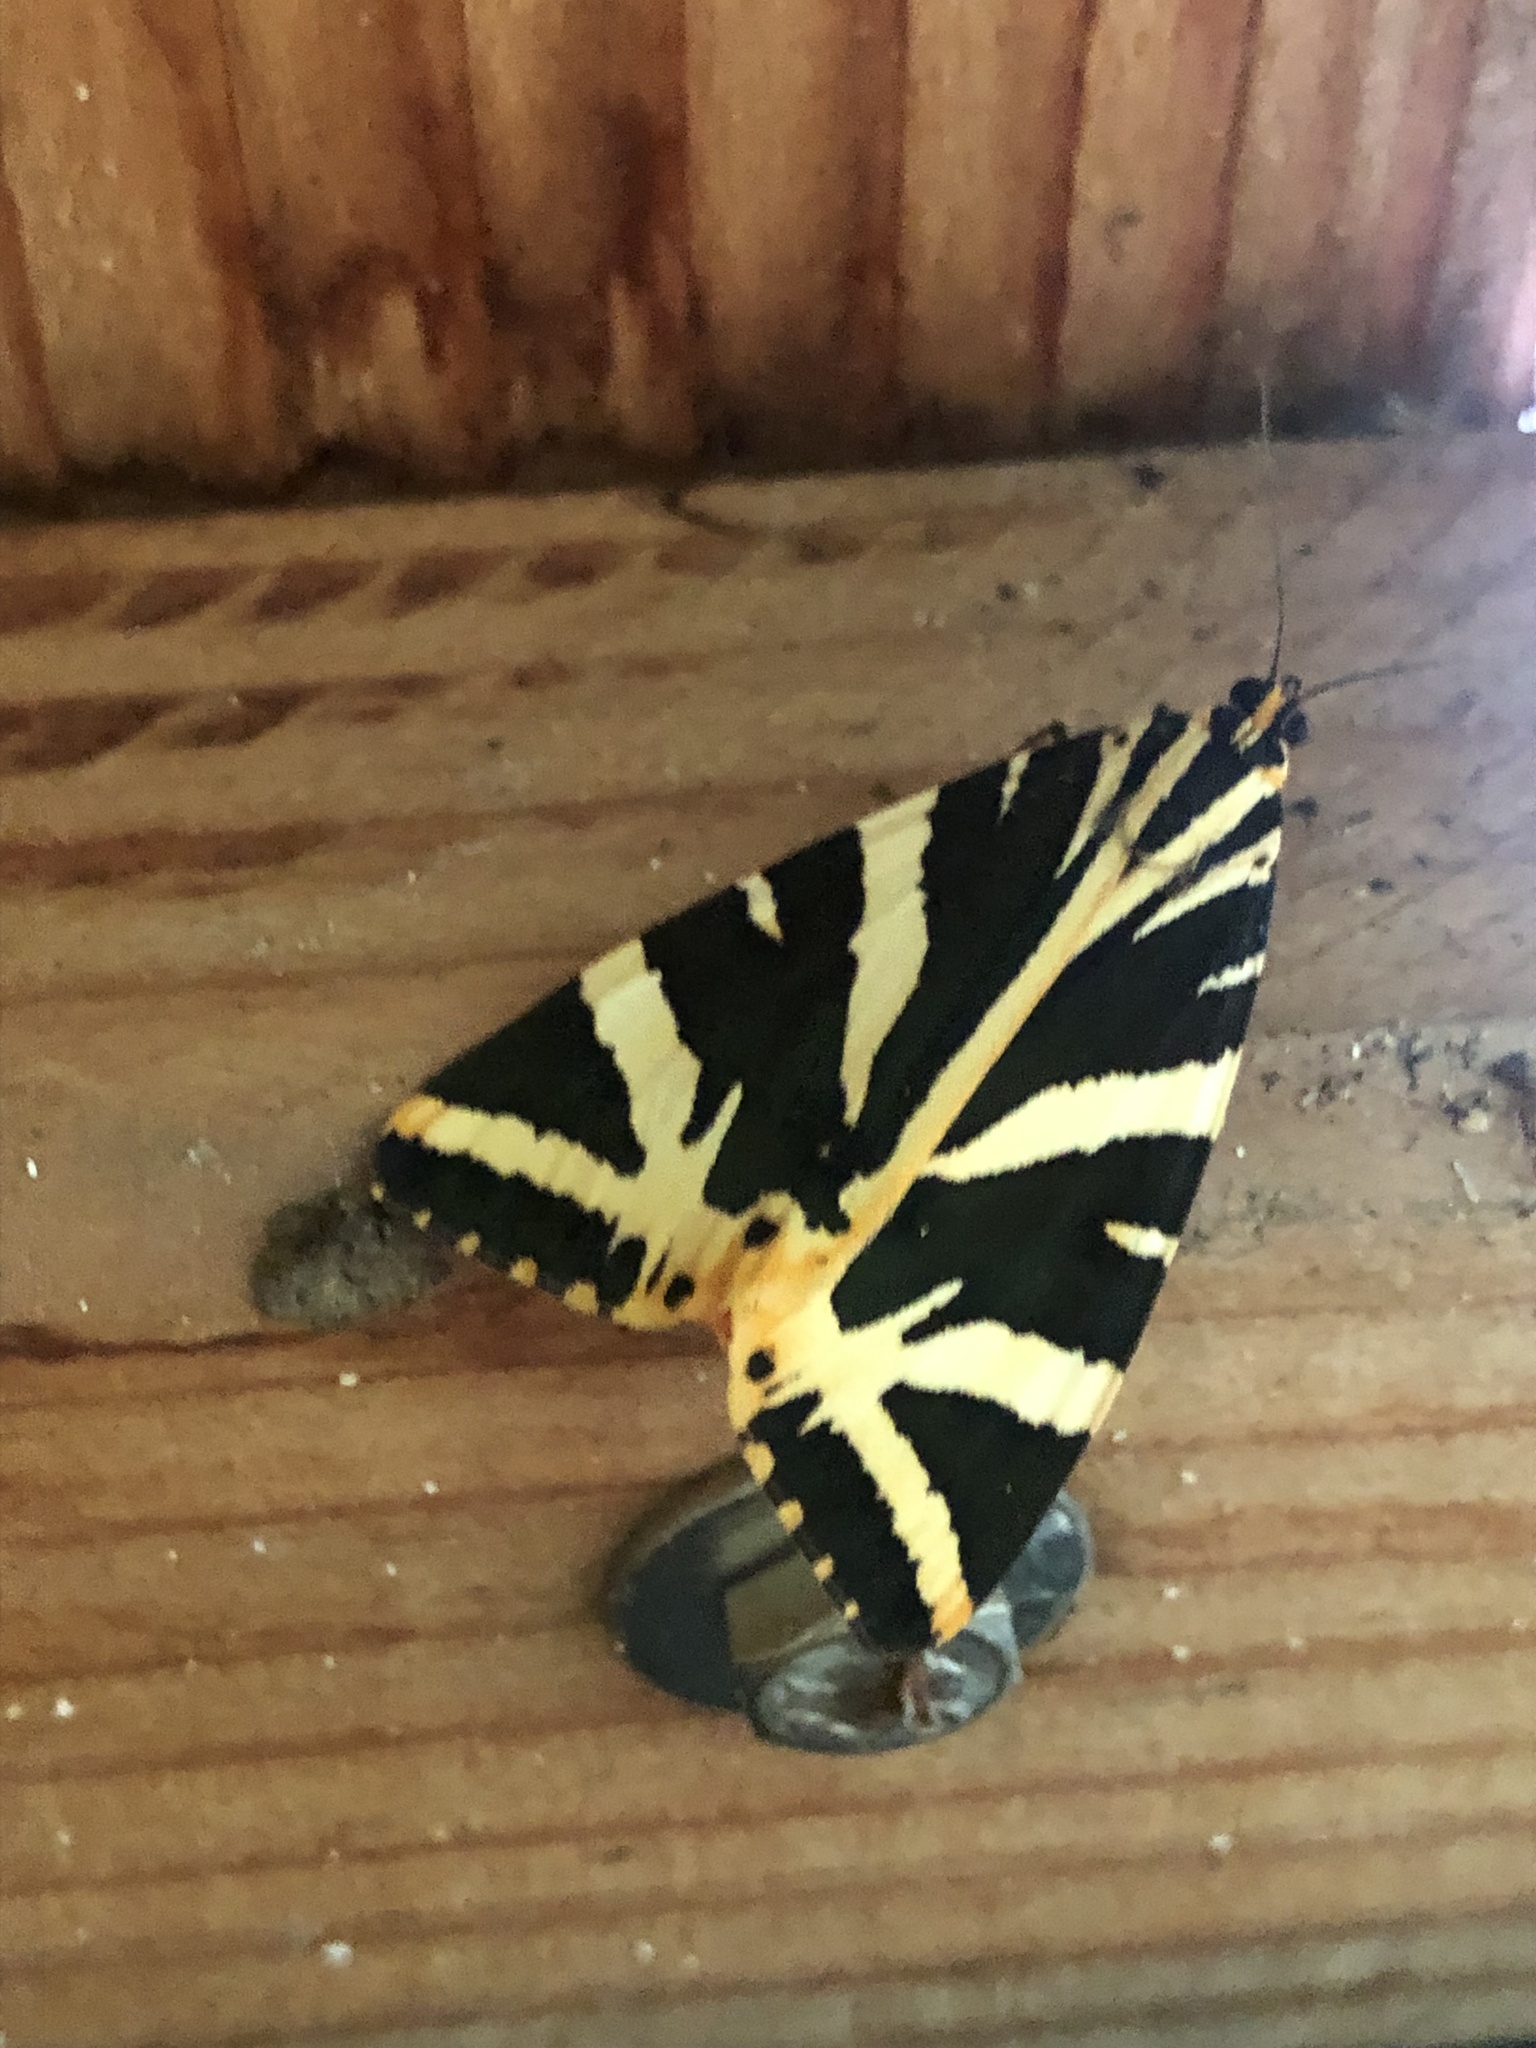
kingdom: Animalia
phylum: Arthropoda
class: Insecta
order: Lepidoptera
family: Erebidae
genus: Euplagia
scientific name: Euplagia quadripunctaria
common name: Jersey tiger
